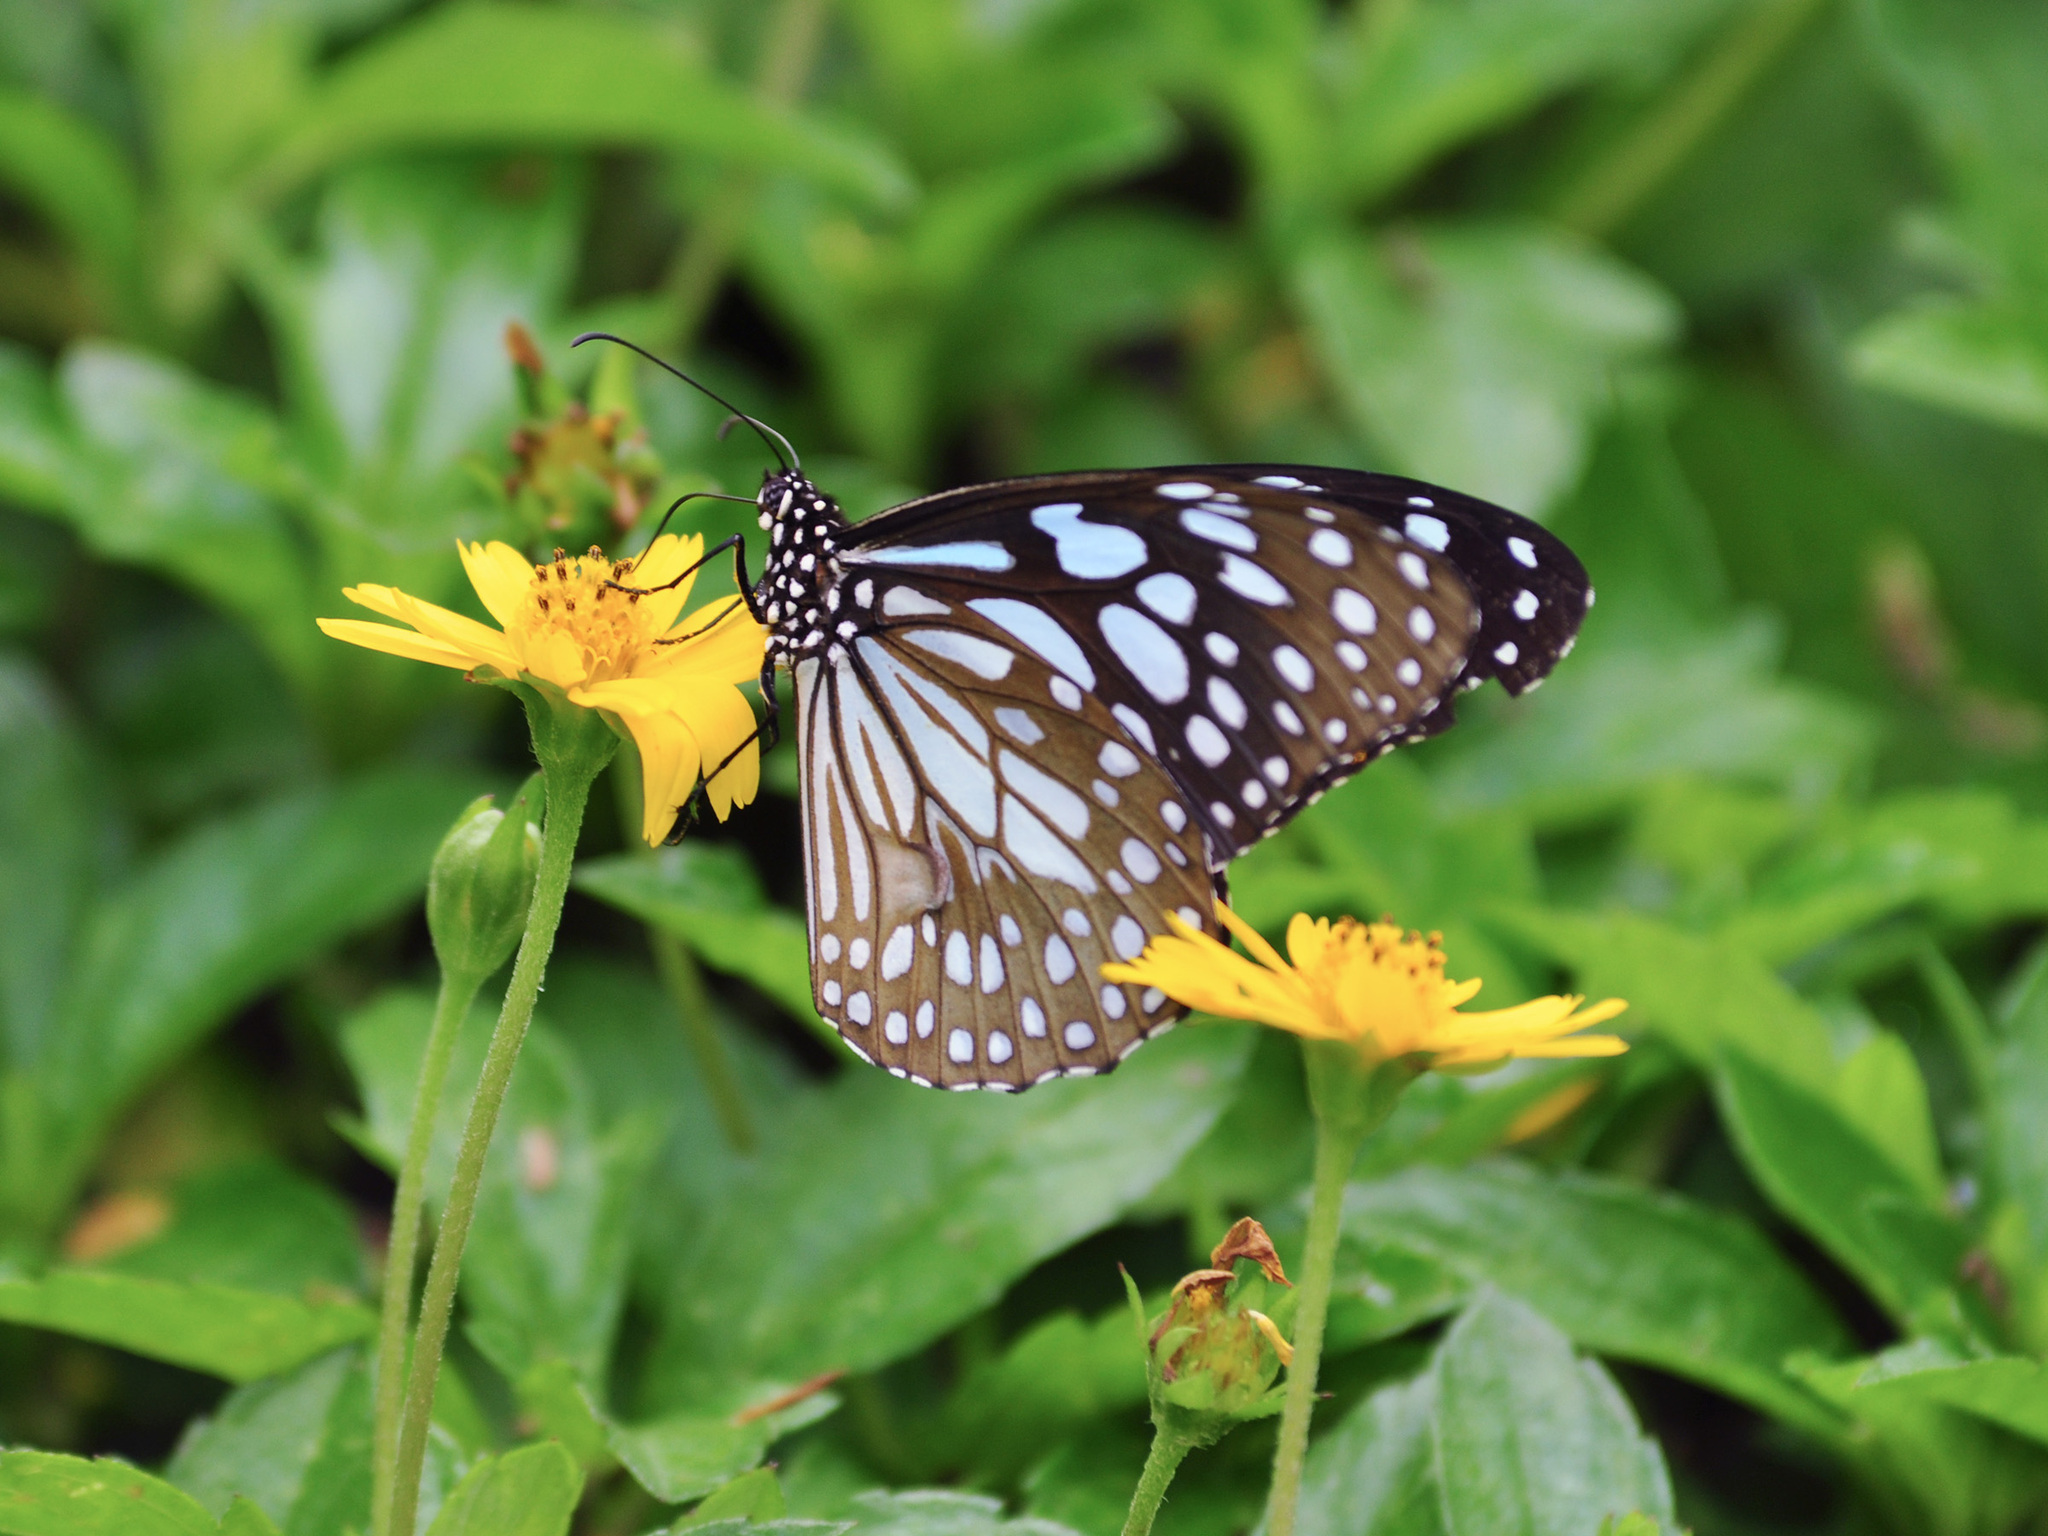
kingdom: Animalia
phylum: Arthropoda
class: Insecta
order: Lepidoptera
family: Nymphalidae
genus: Tirumala
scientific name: Tirumala limniace
